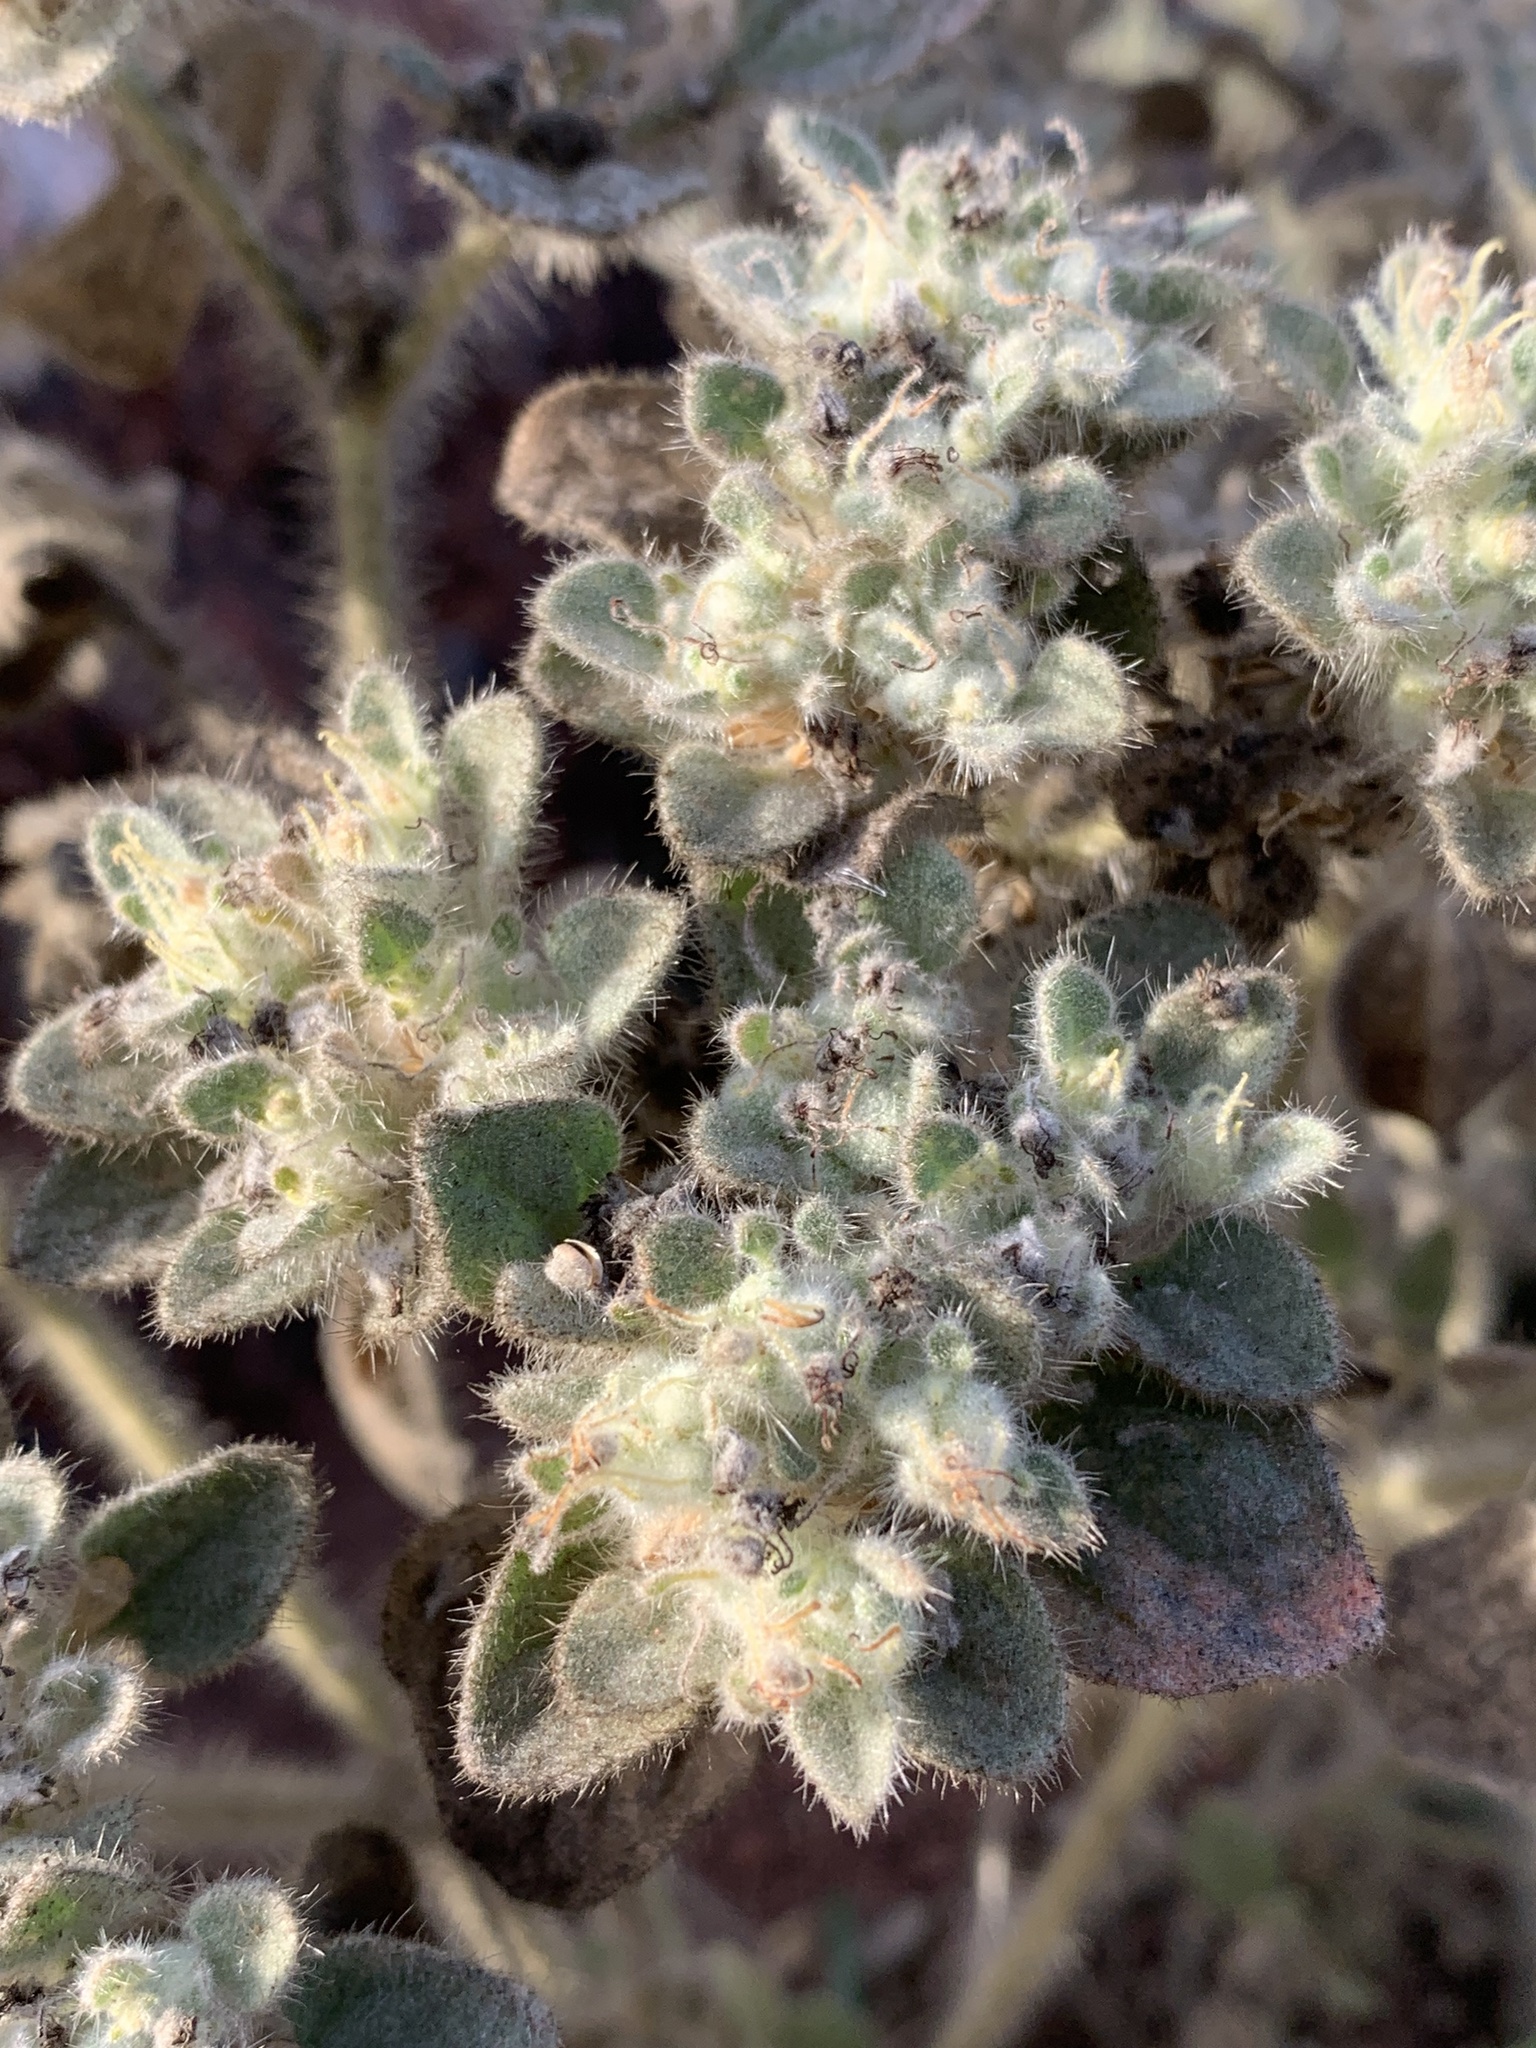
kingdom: Plantae
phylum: Tracheophyta
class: Magnoliopsida
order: Malpighiales
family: Euphorbiaceae
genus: Croton
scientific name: Croton setiger
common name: Dove weed
